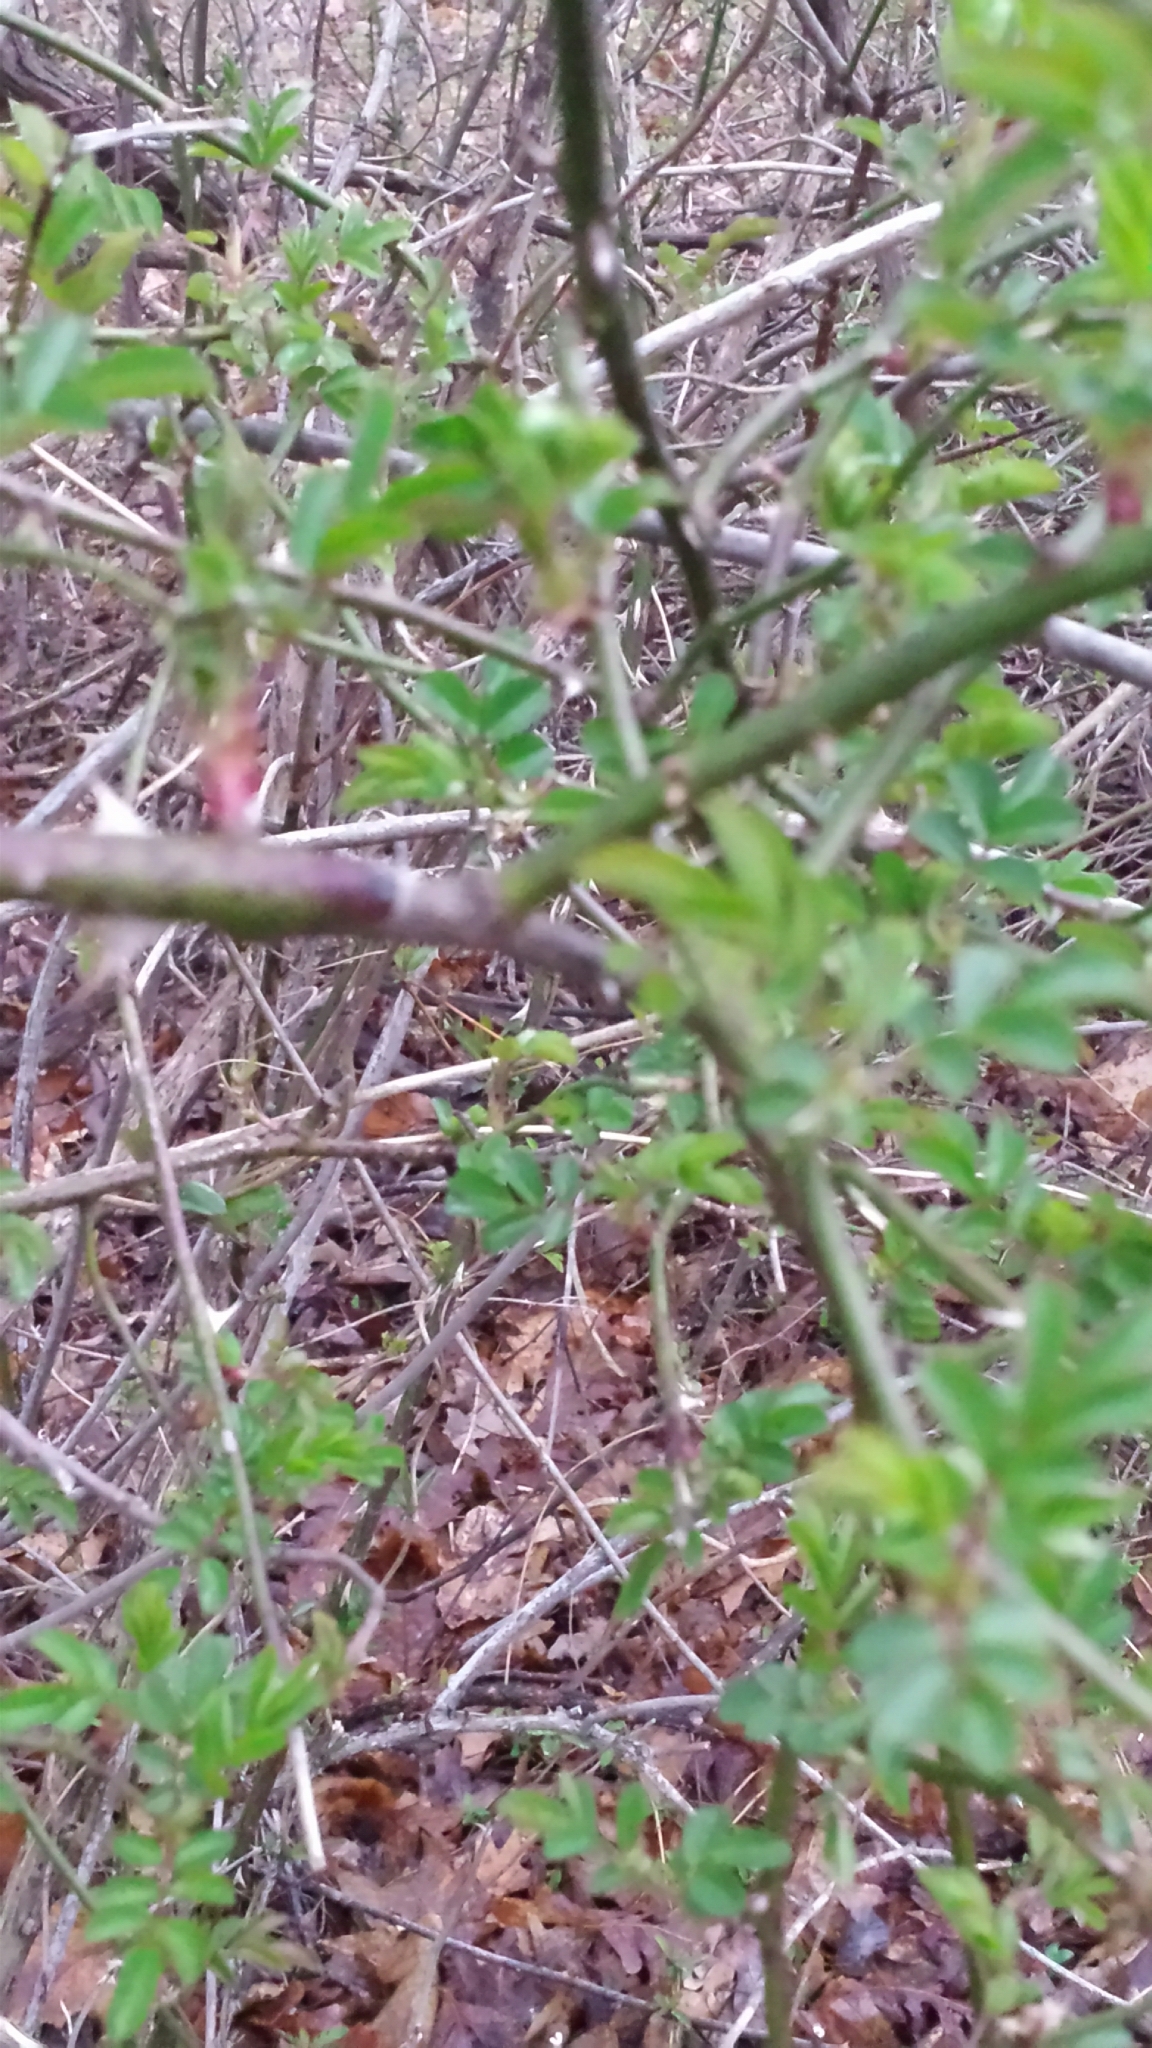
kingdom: Plantae
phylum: Tracheophyta
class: Magnoliopsida
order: Rosales
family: Rosaceae
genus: Rosa
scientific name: Rosa multiflora
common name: Multiflora rose
